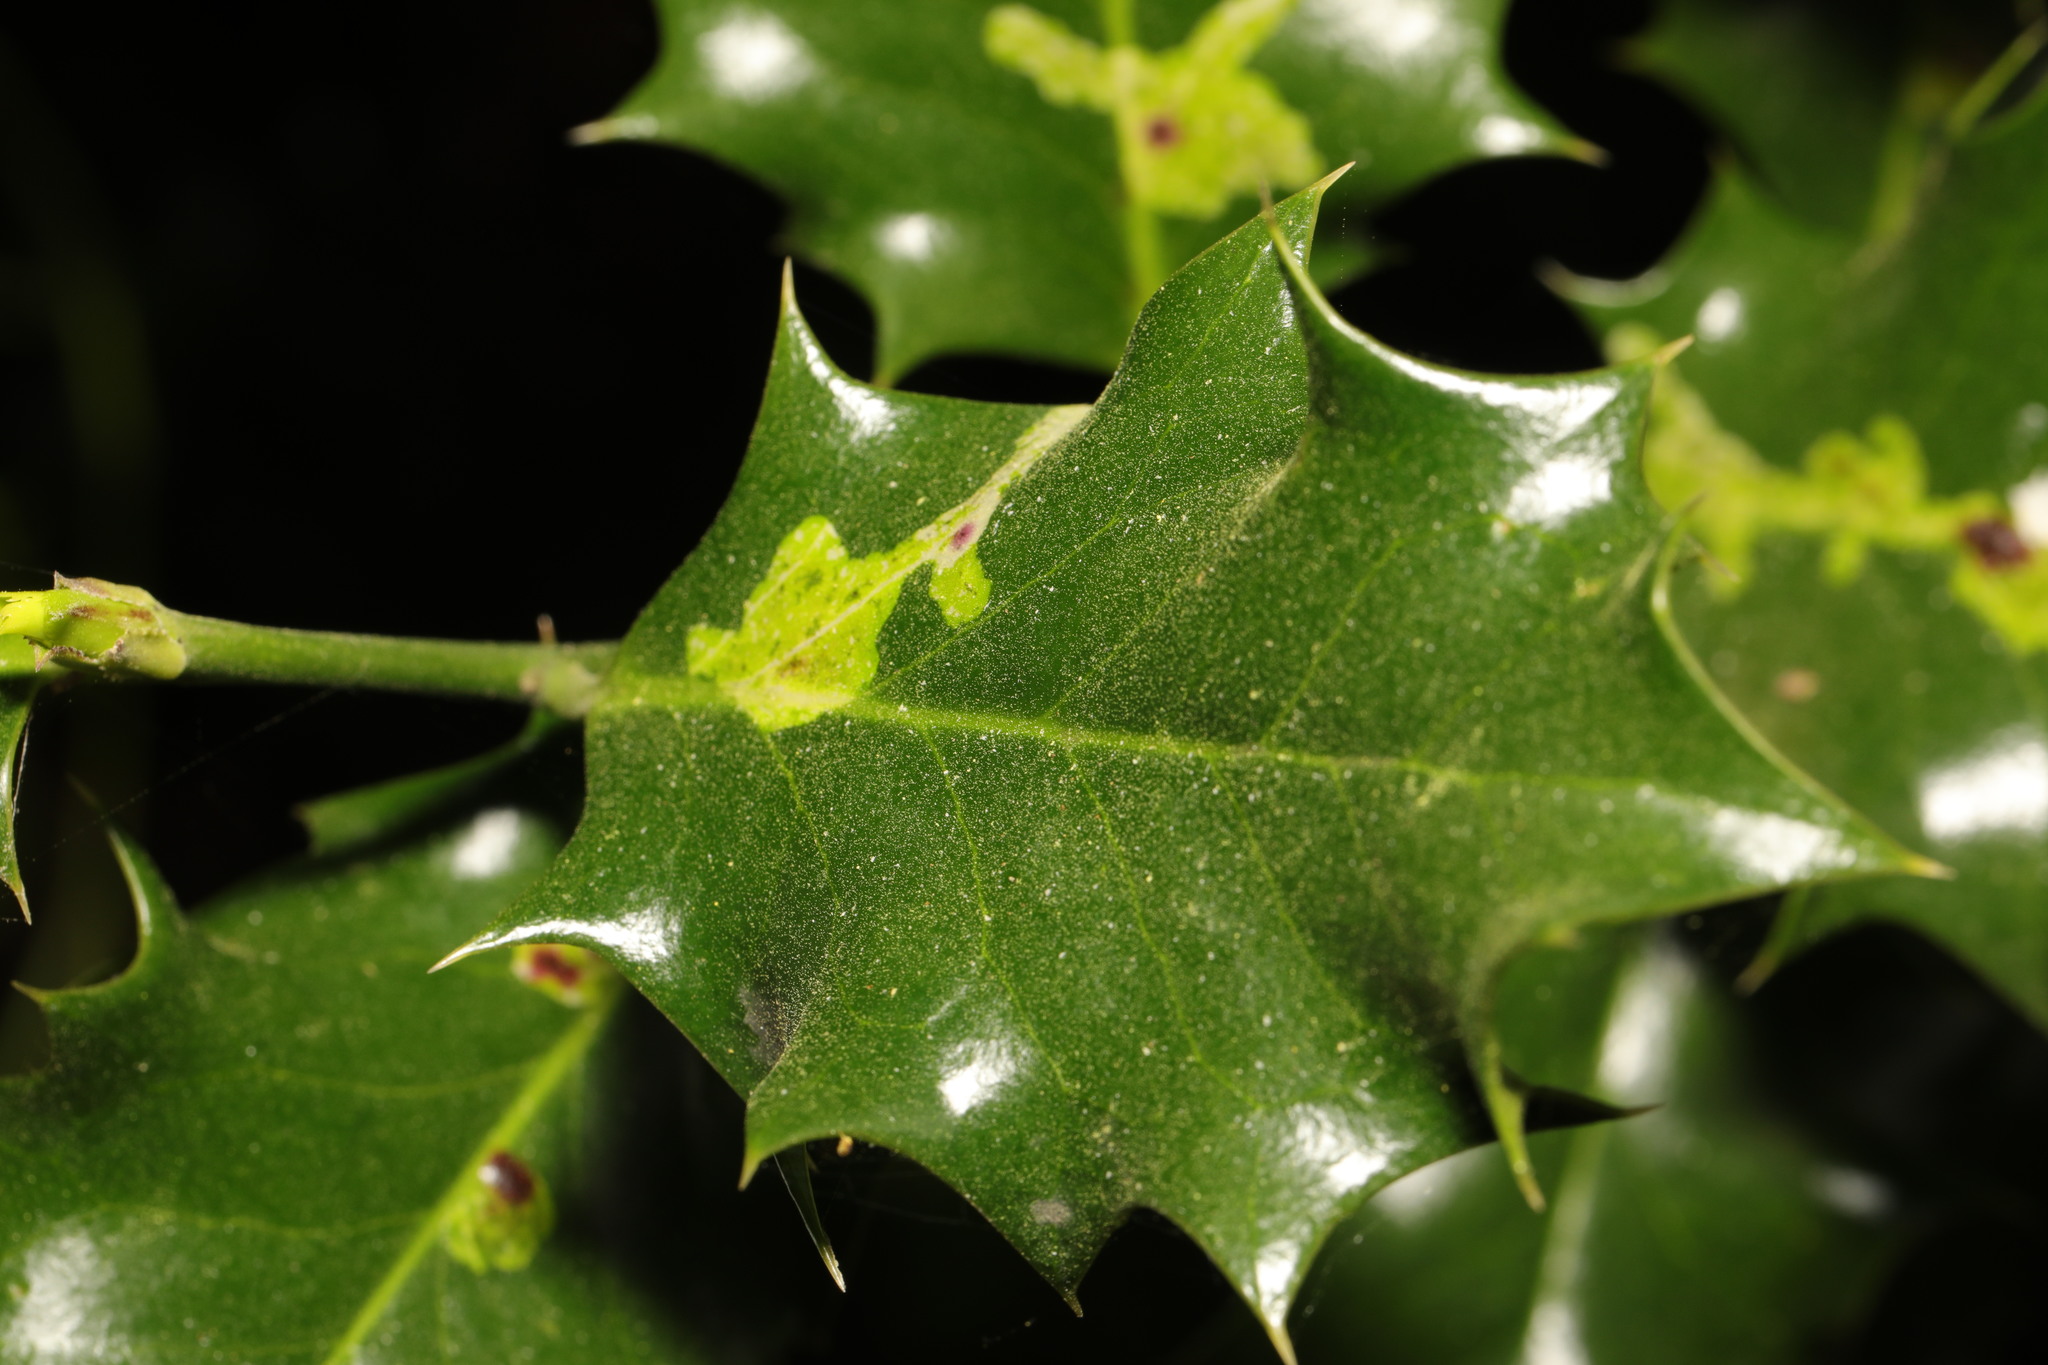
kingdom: Animalia
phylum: Arthropoda
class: Insecta
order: Diptera
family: Agromyzidae
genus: Phytomyza
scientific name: Phytomyza ilicis
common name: Holly leafminer
